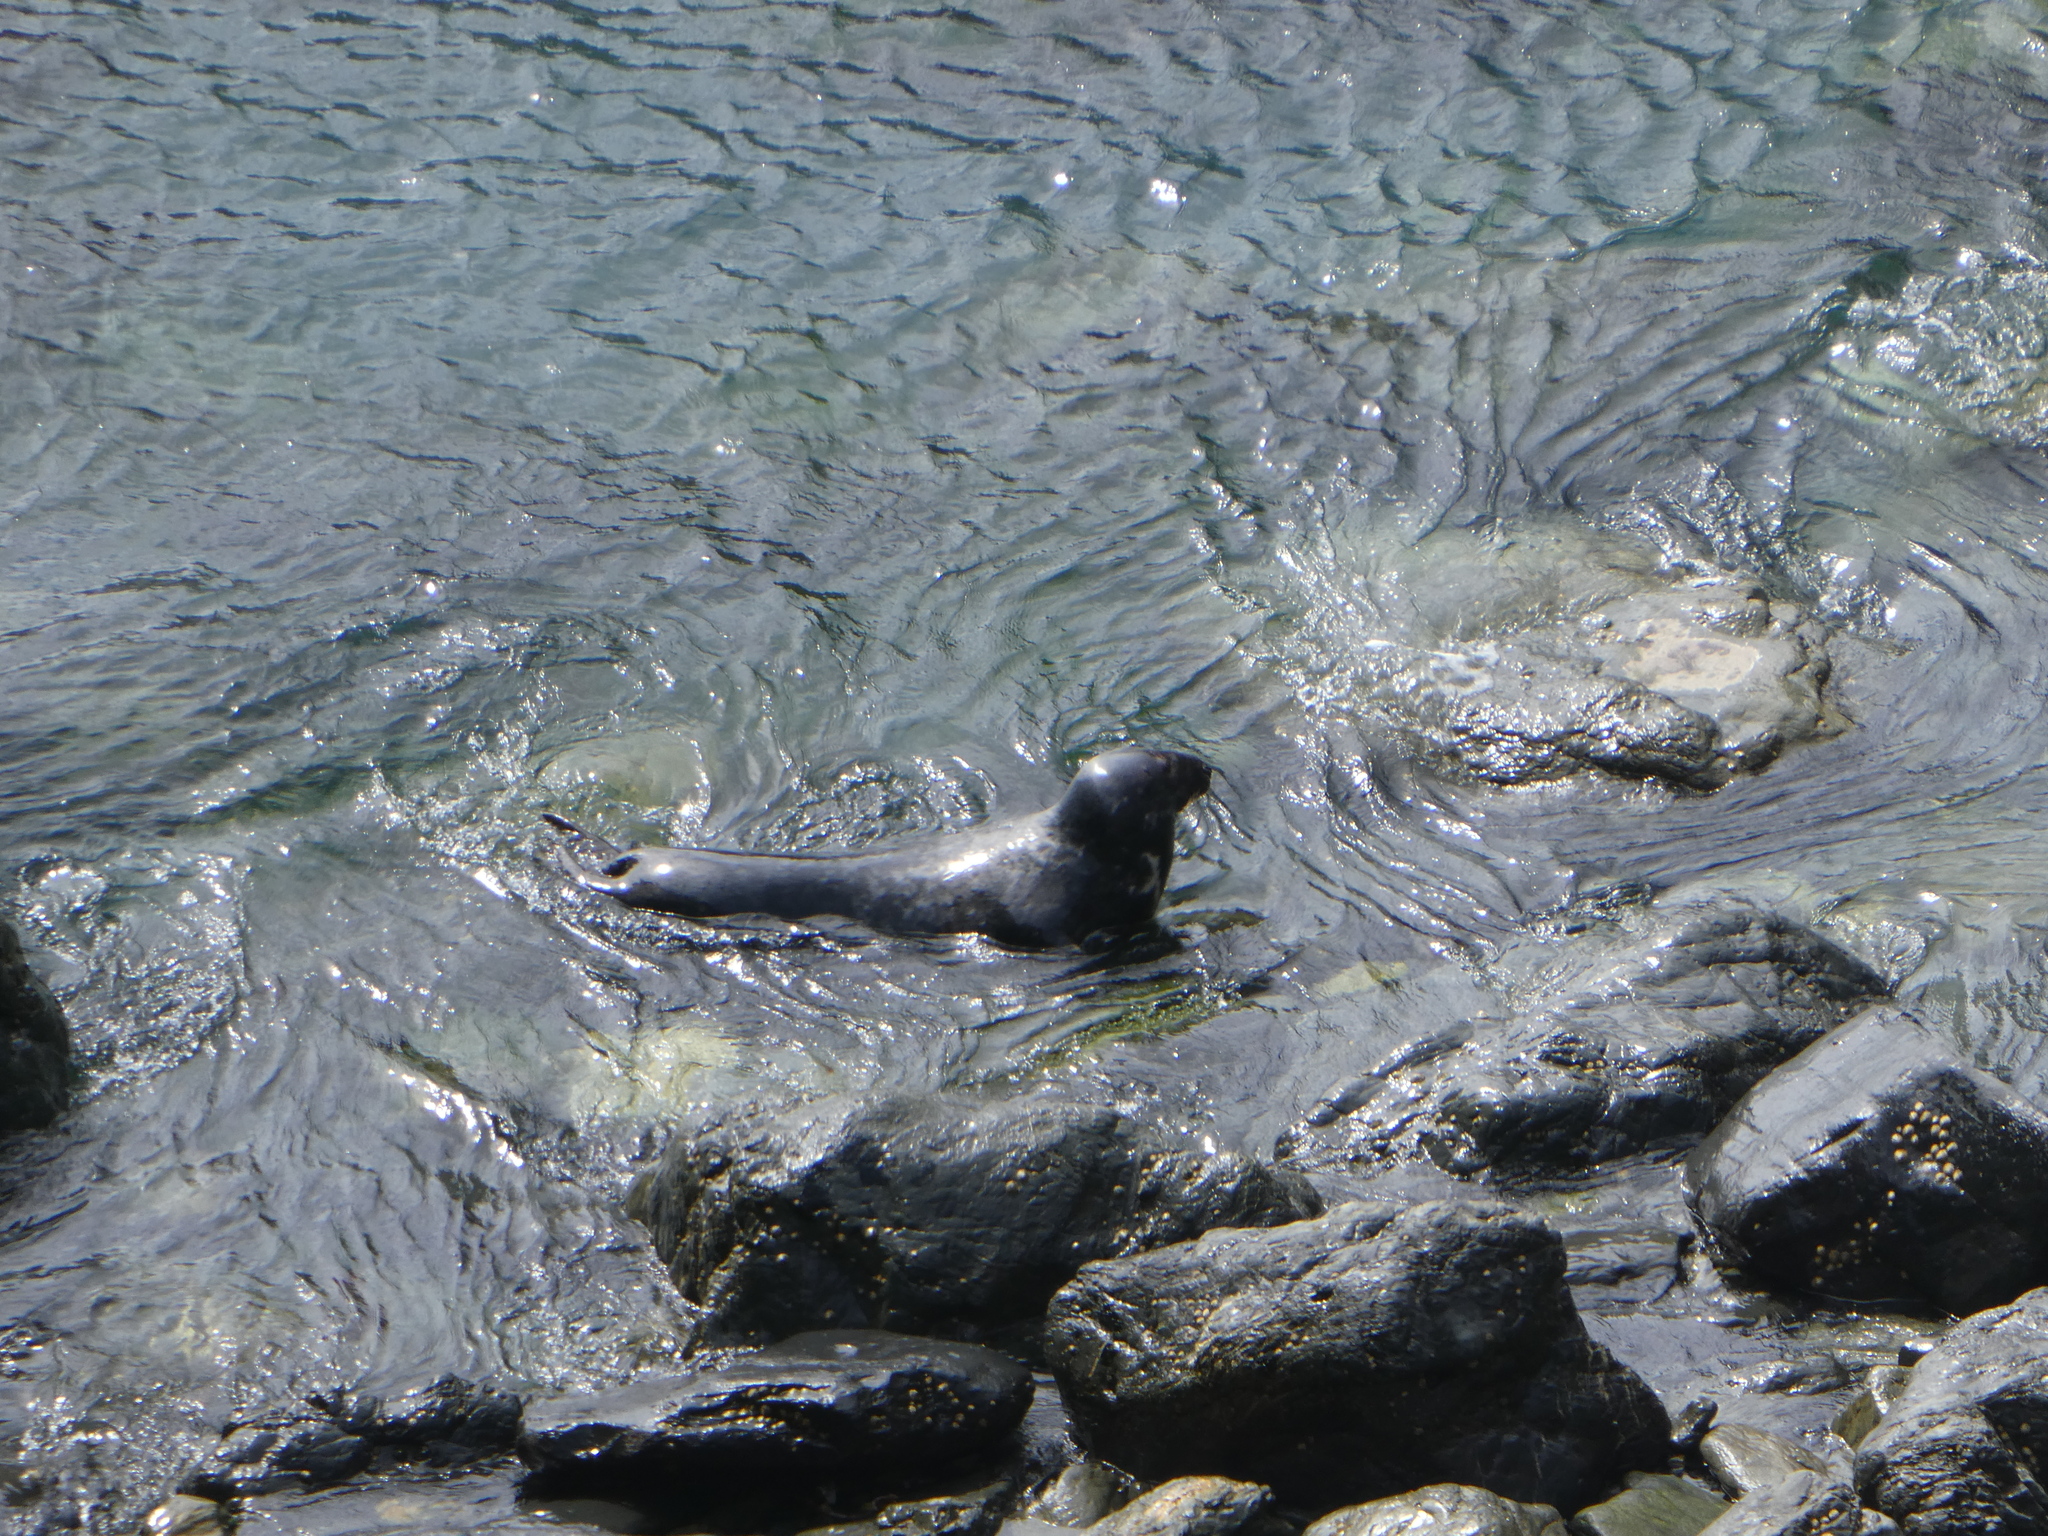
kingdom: Animalia
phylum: Chordata
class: Mammalia
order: Carnivora
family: Phocidae
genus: Halichoerus
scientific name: Halichoerus grypus
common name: Grey seal
